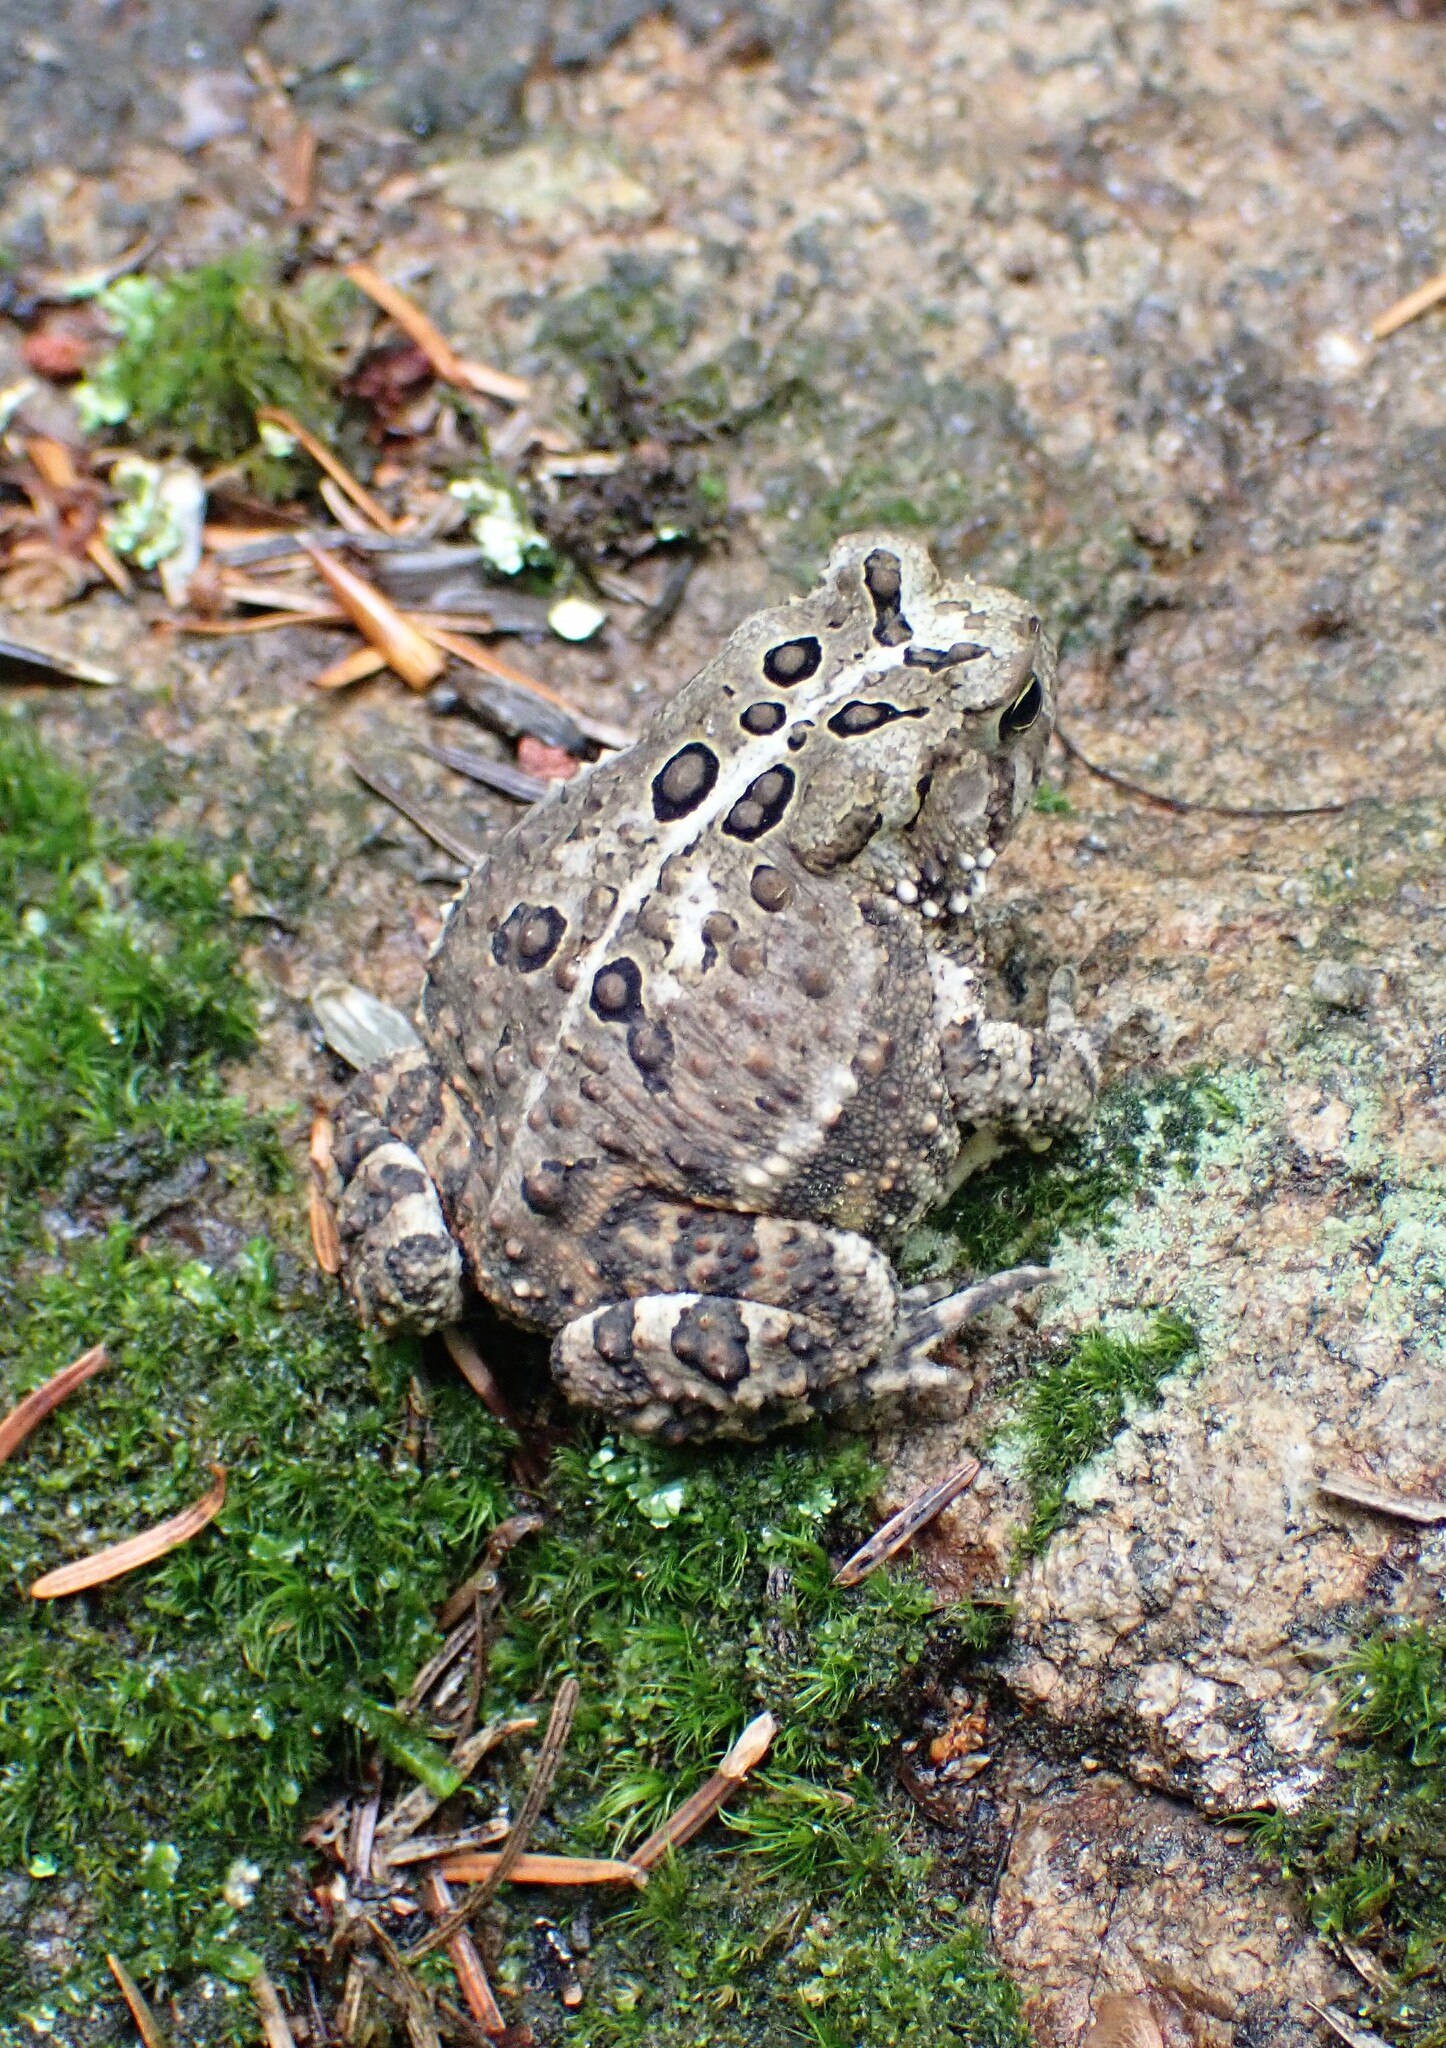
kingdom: Animalia
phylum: Chordata
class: Amphibia
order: Anura
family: Bufonidae
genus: Anaxyrus
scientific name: Anaxyrus americanus
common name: American toad
